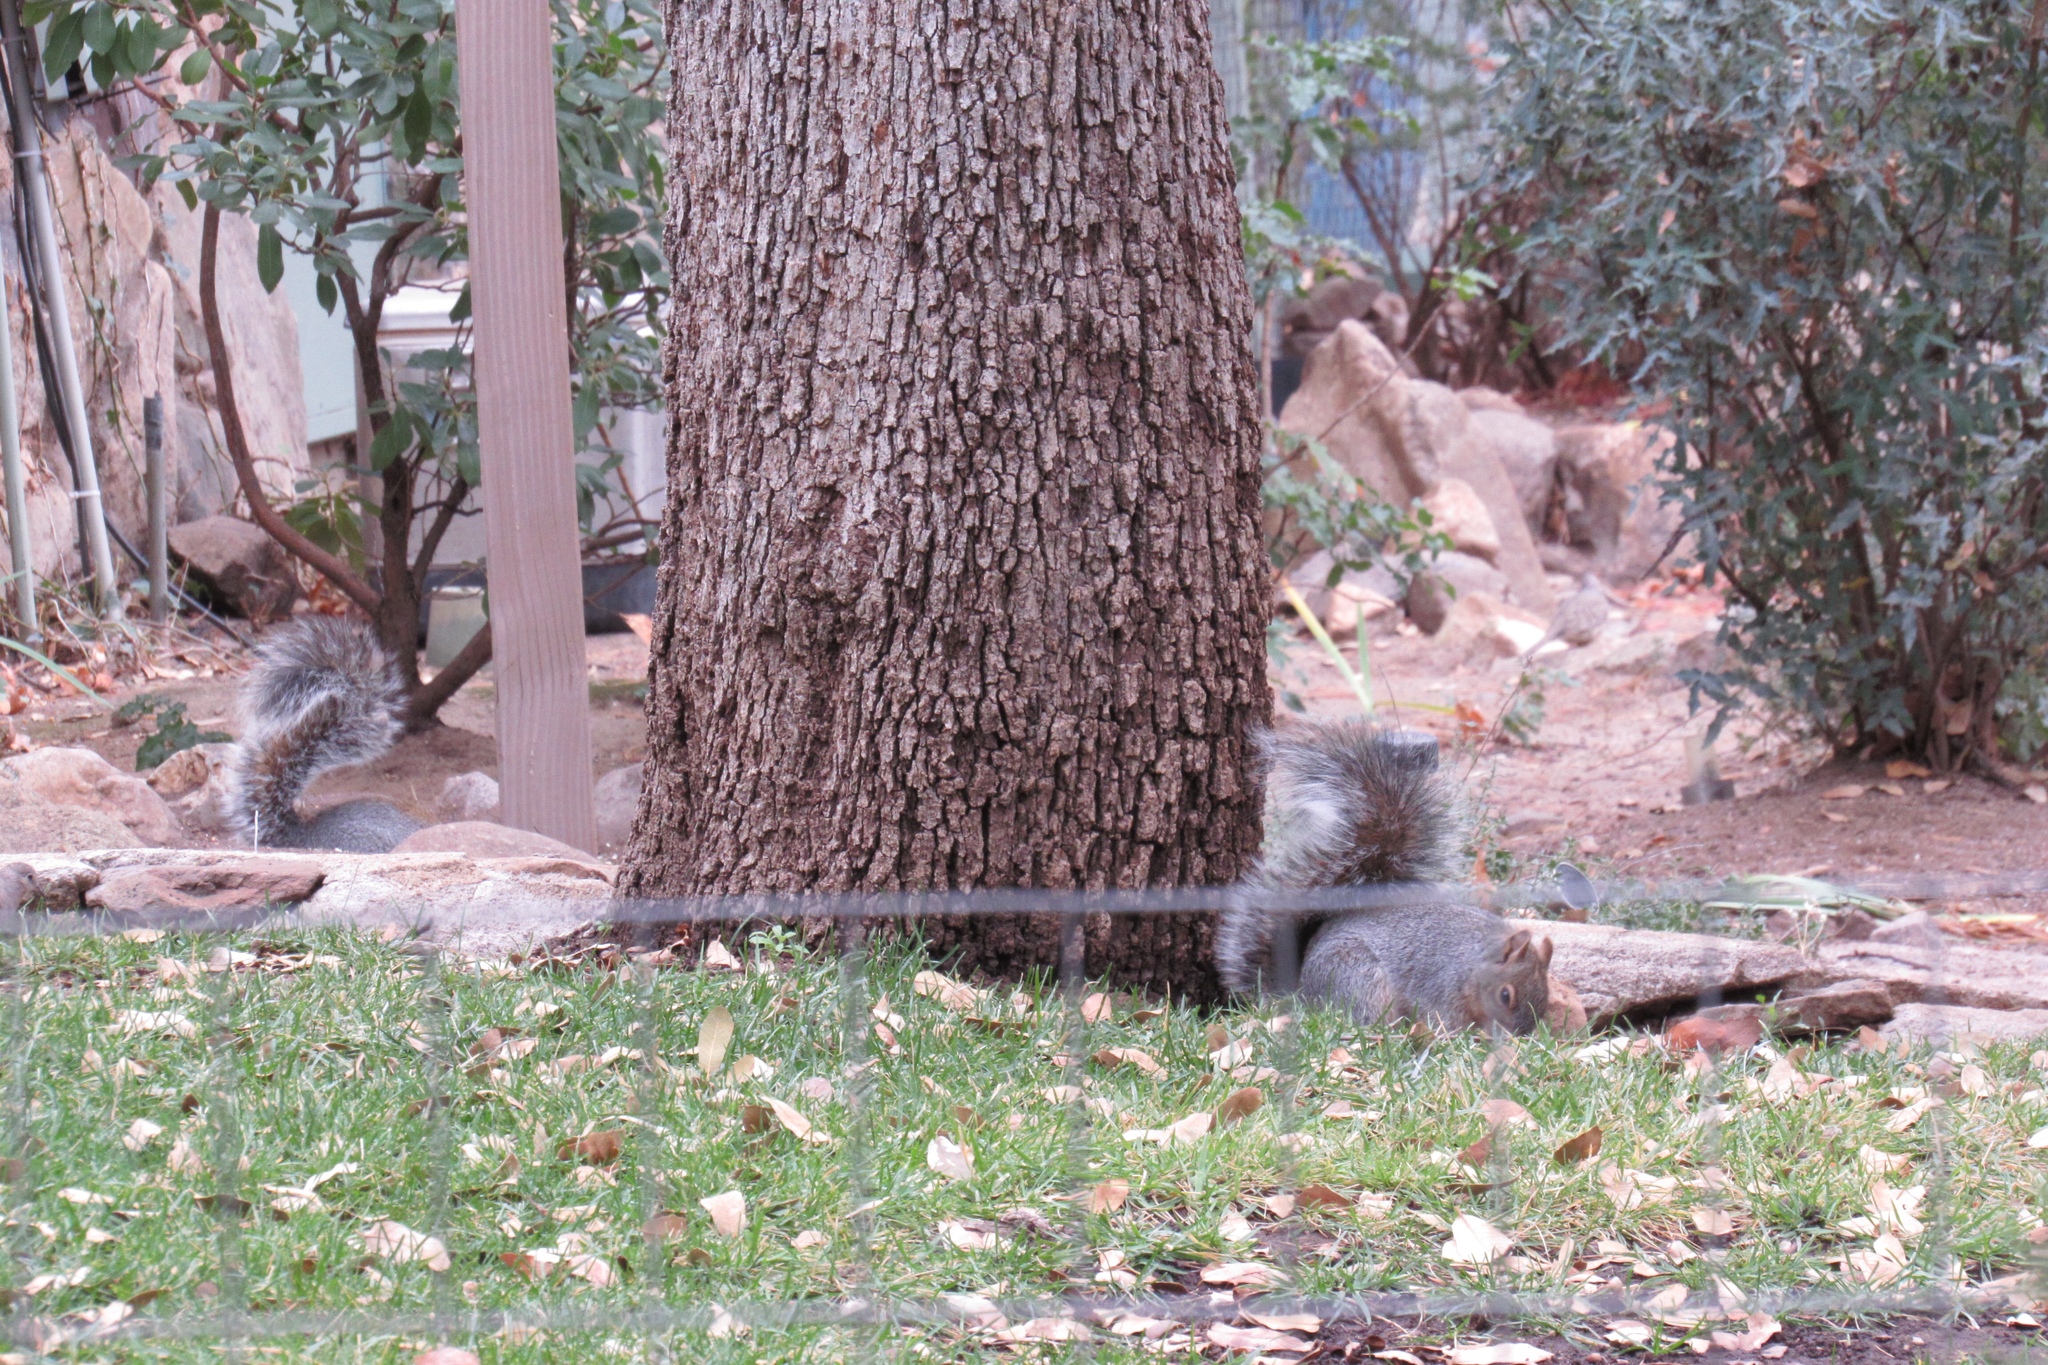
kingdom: Animalia
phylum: Chordata
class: Mammalia
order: Rodentia
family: Sciuridae
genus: Sciurus
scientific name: Sciurus arizonensis
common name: Arizona gray squirrel
